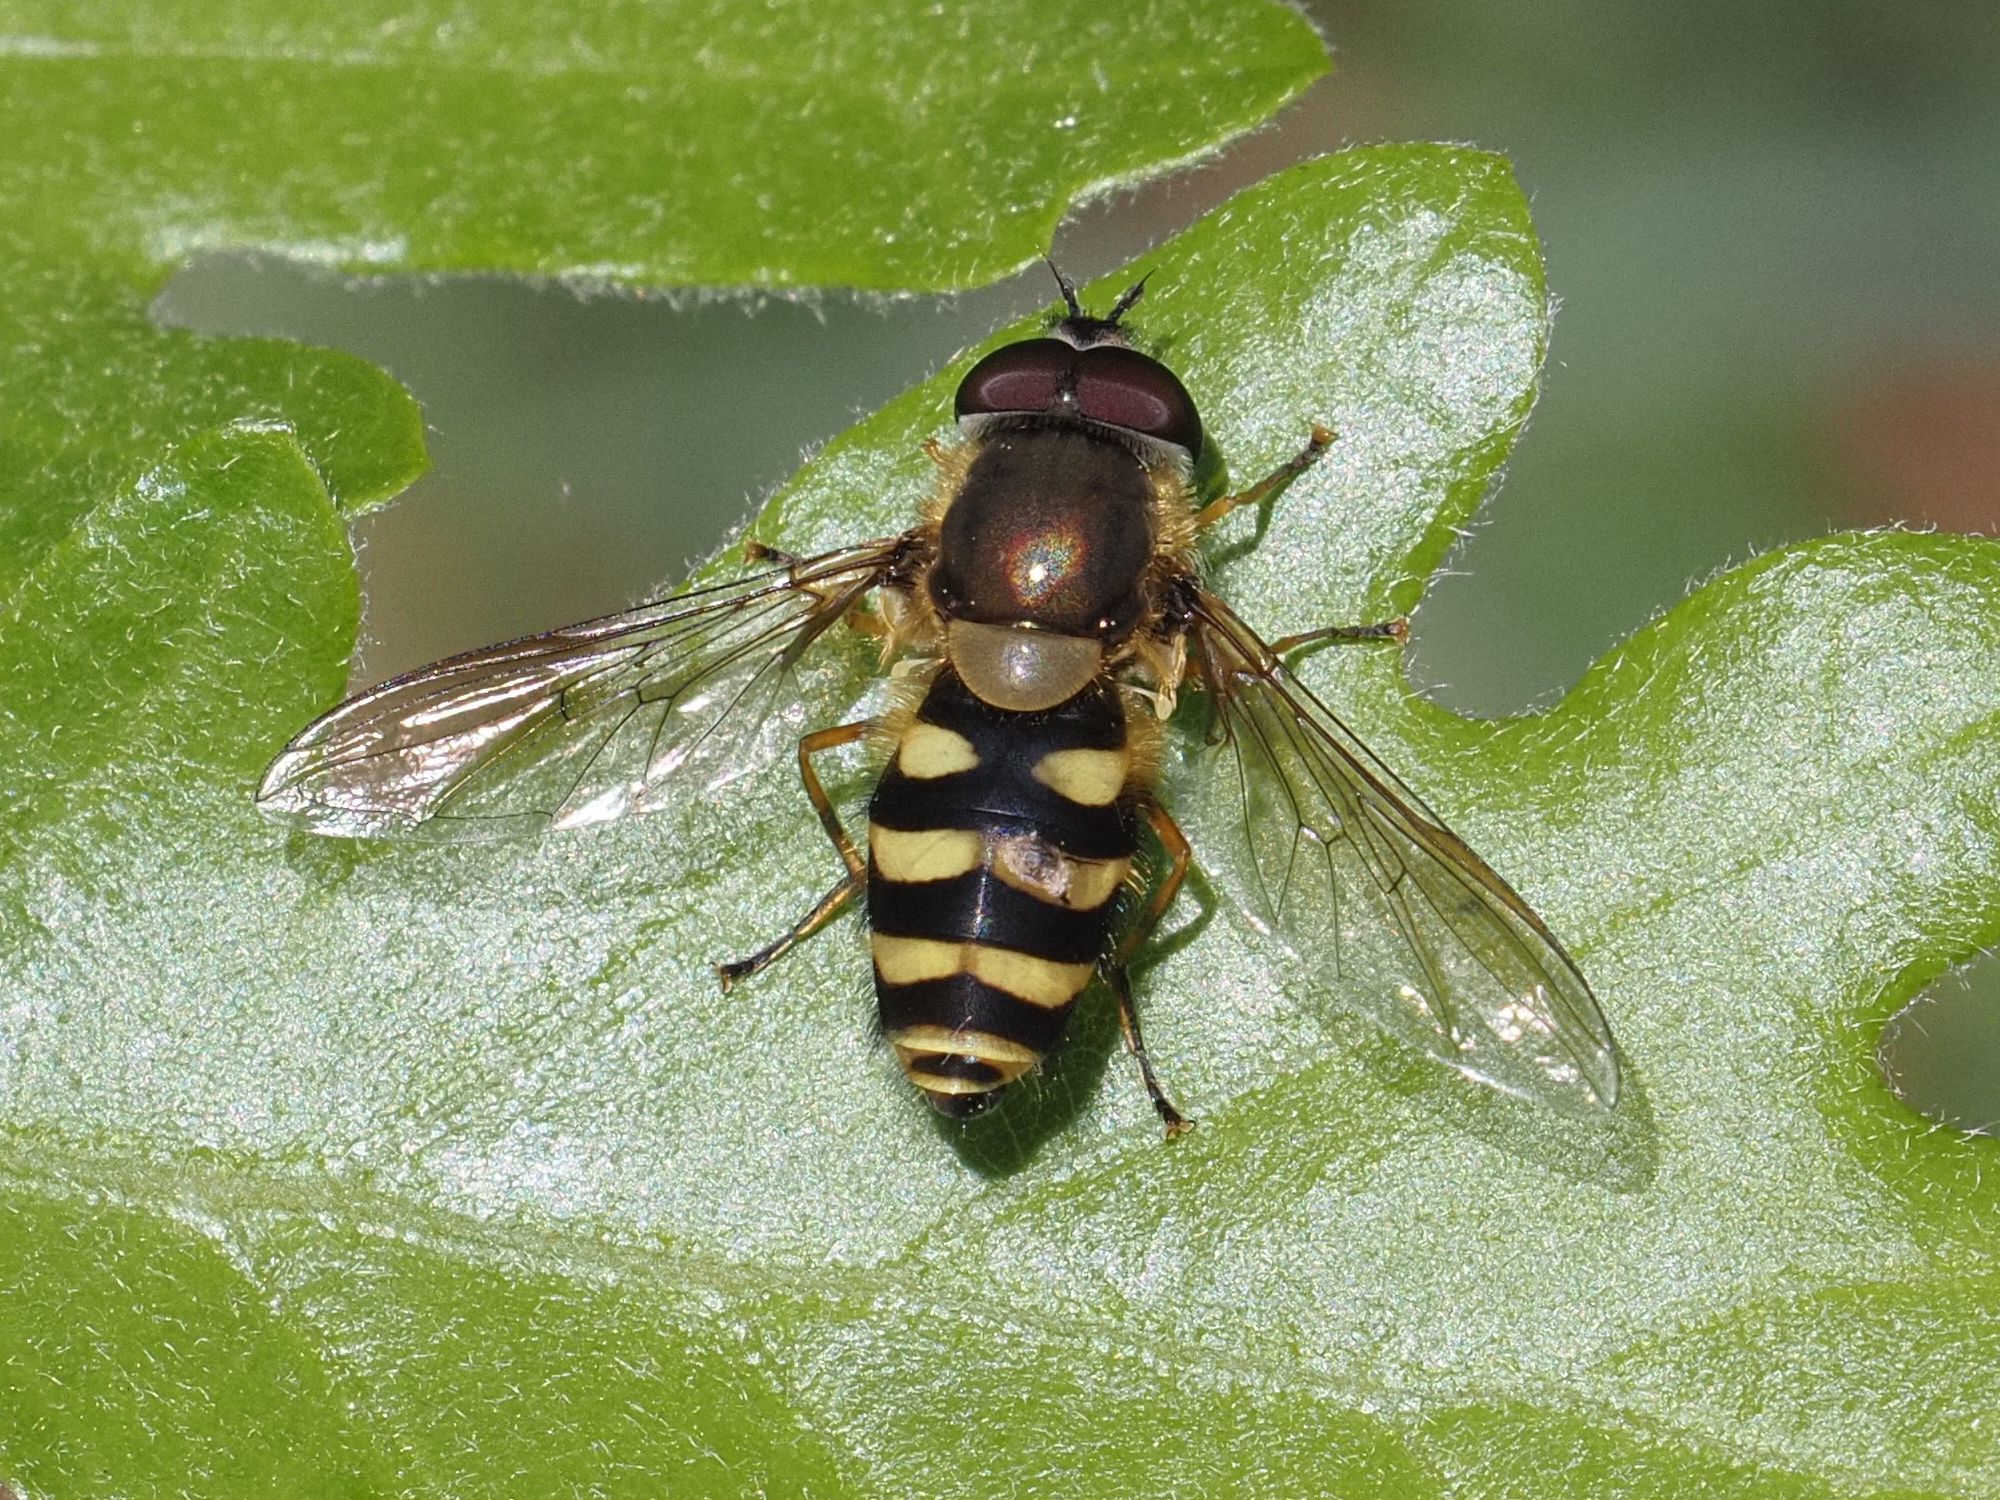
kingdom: Animalia
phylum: Arthropoda
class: Insecta
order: Diptera
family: Syrphidae
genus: Syrphus
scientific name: Syrphus
